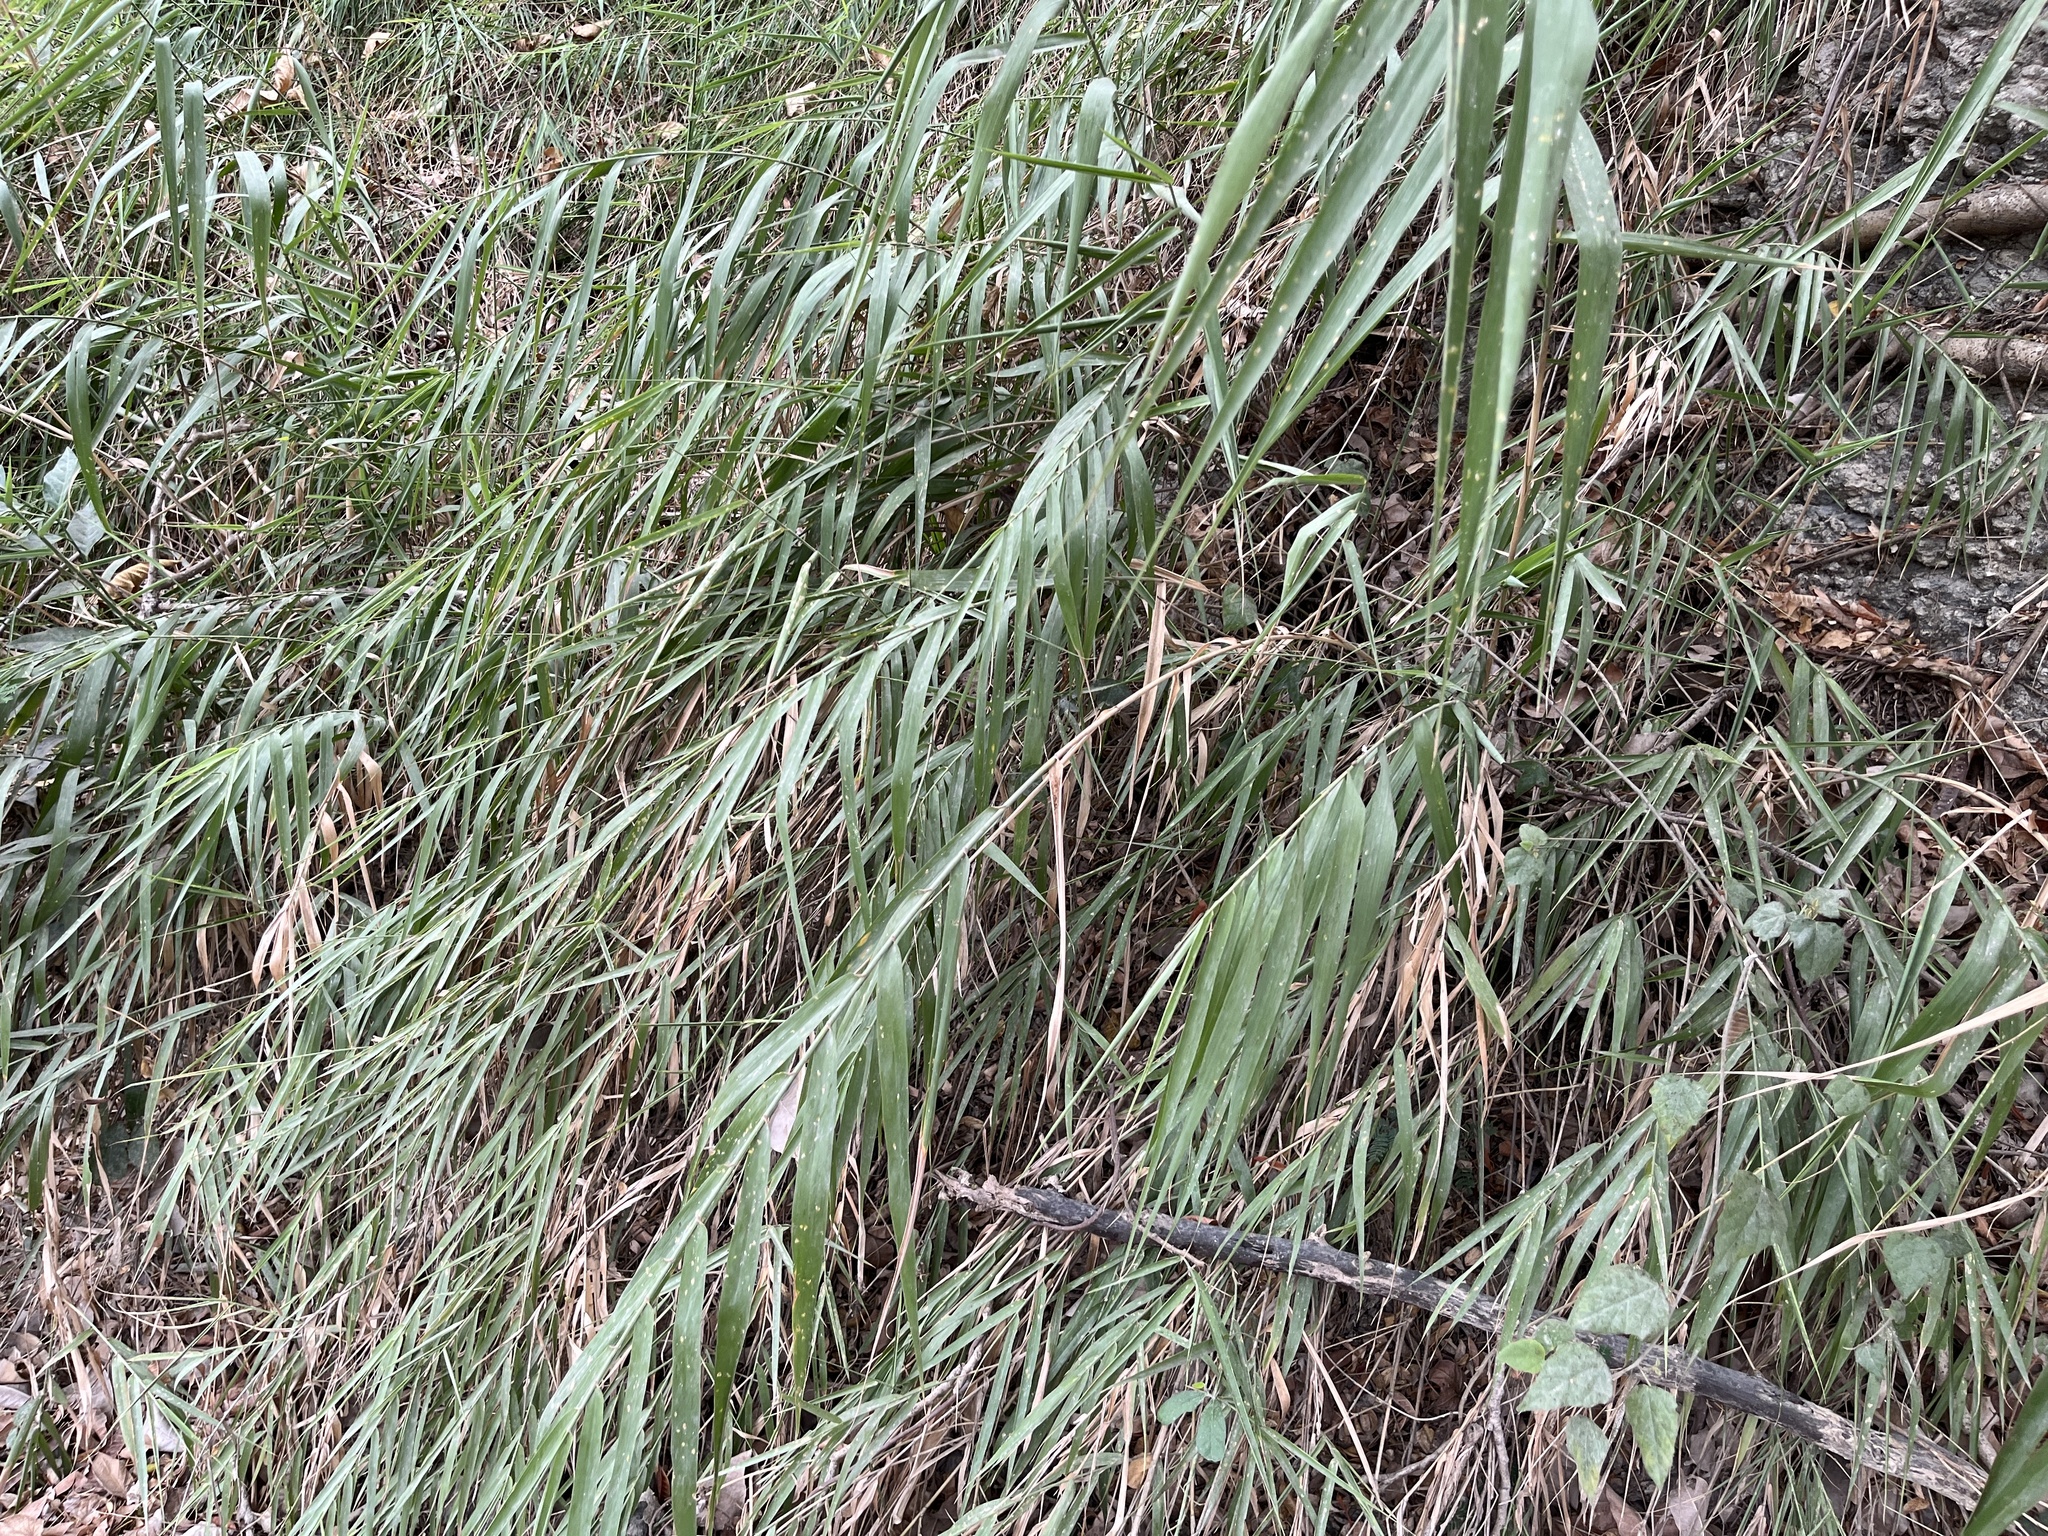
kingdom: Plantae
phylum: Tracheophyta
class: Liliopsida
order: Poales
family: Poaceae
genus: Arundo
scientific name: Arundo formosana
